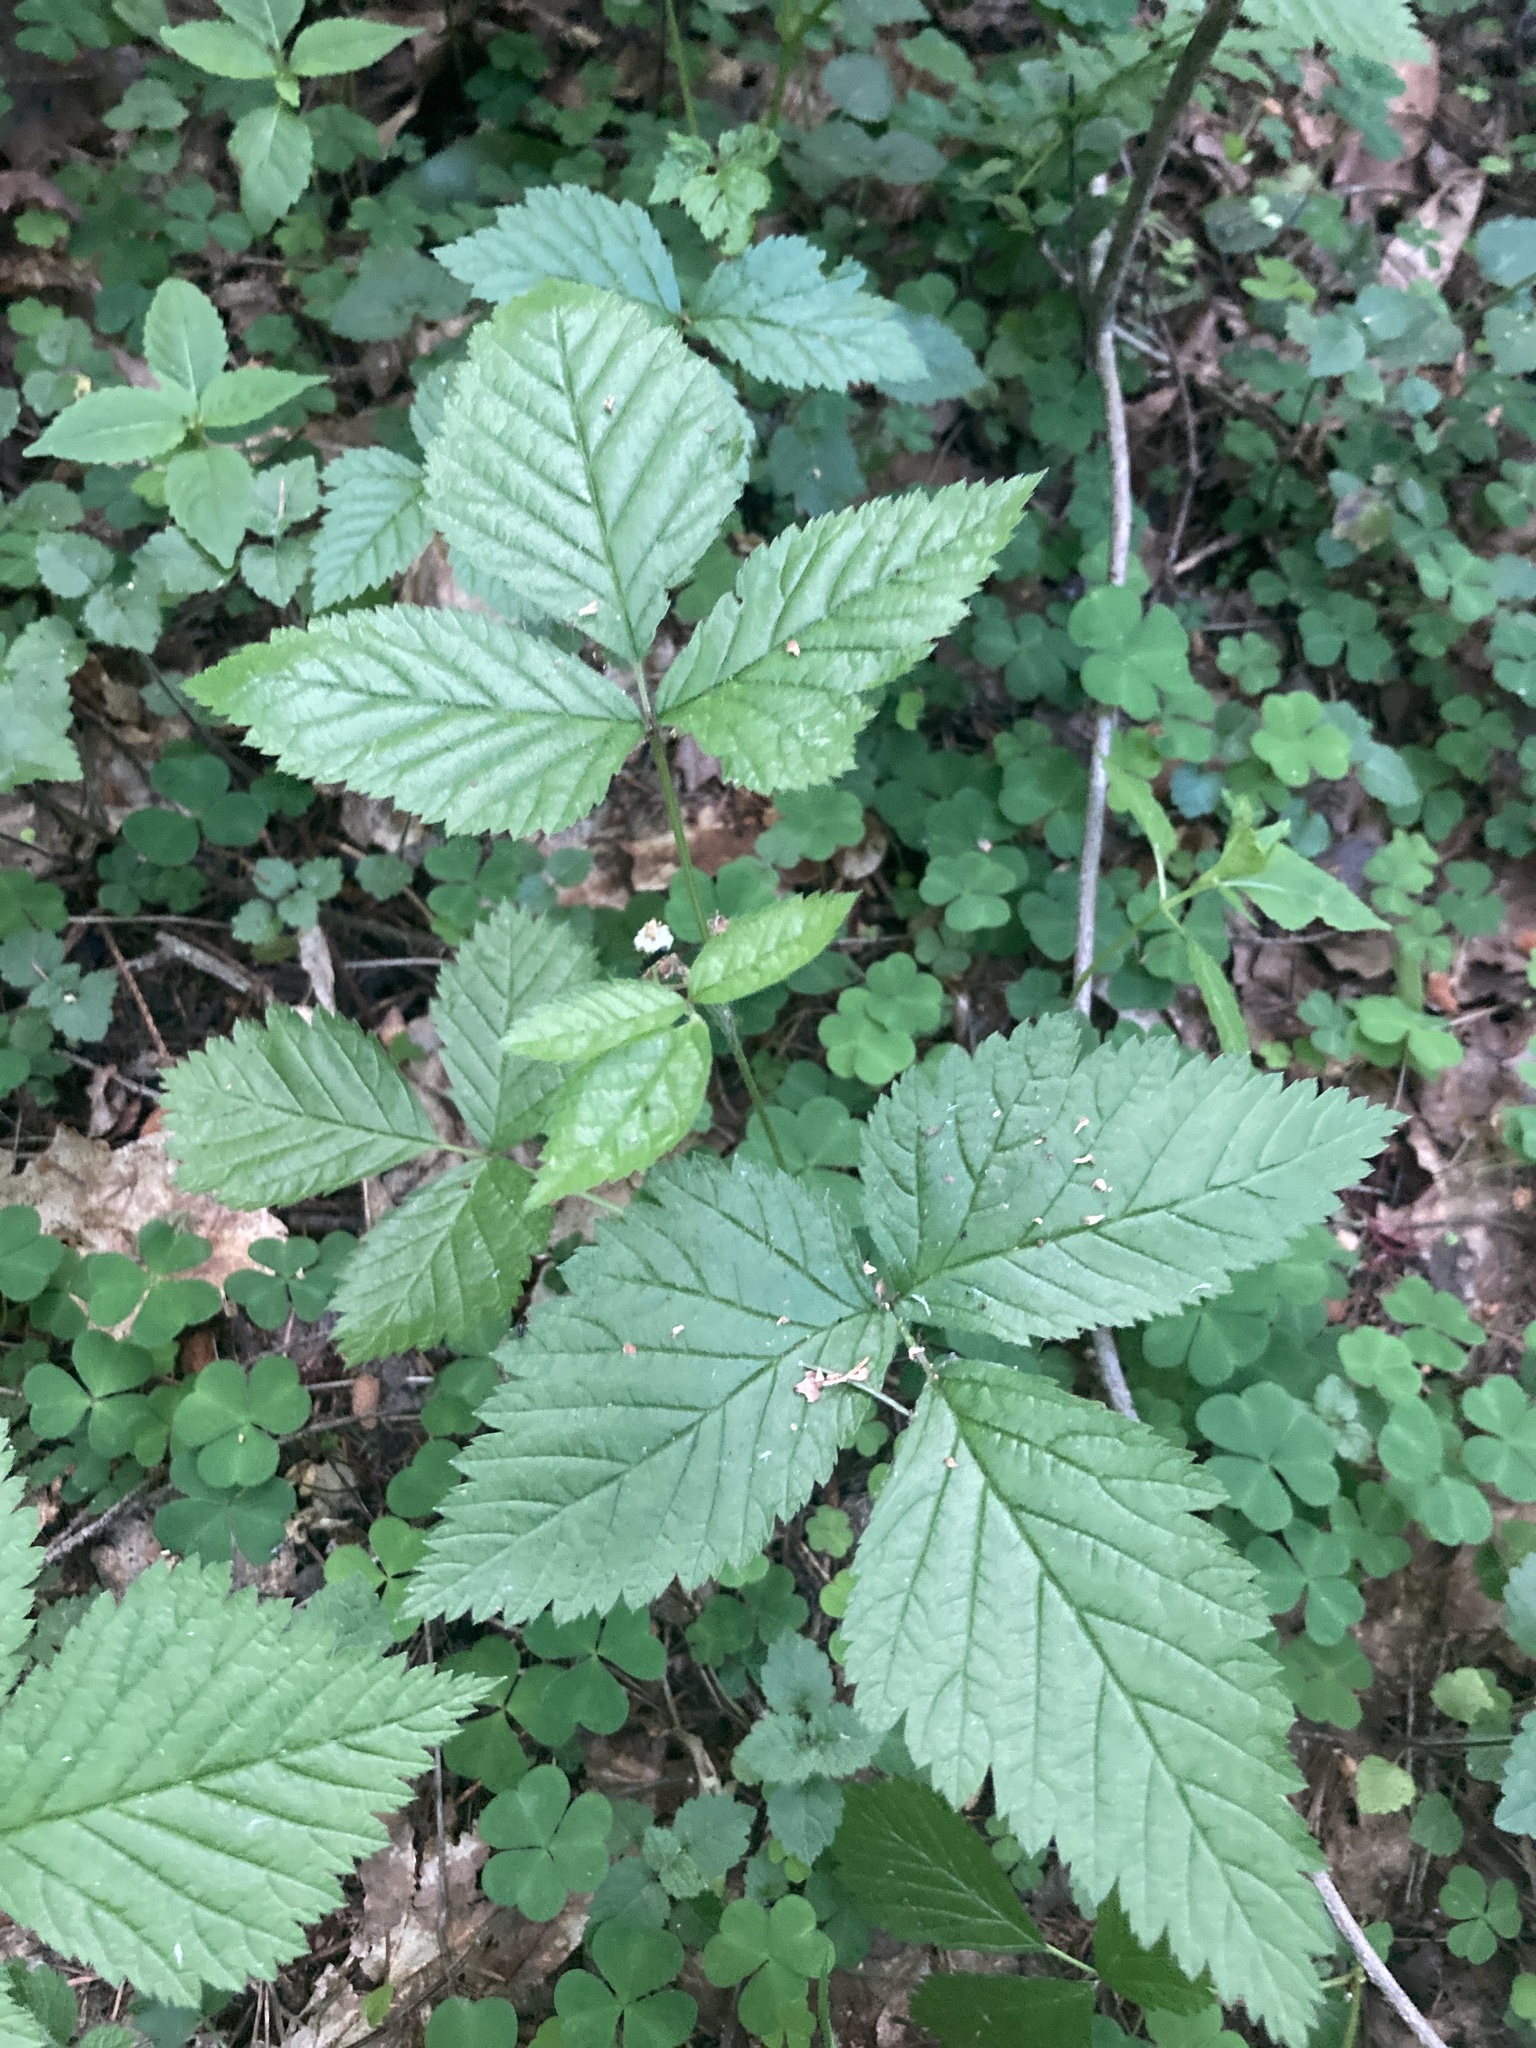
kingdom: Plantae
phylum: Tracheophyta
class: Magnoliopsida
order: Rosales
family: Rosaceae
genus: Rubus
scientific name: Rubus saxatilis
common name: Stone bramble
